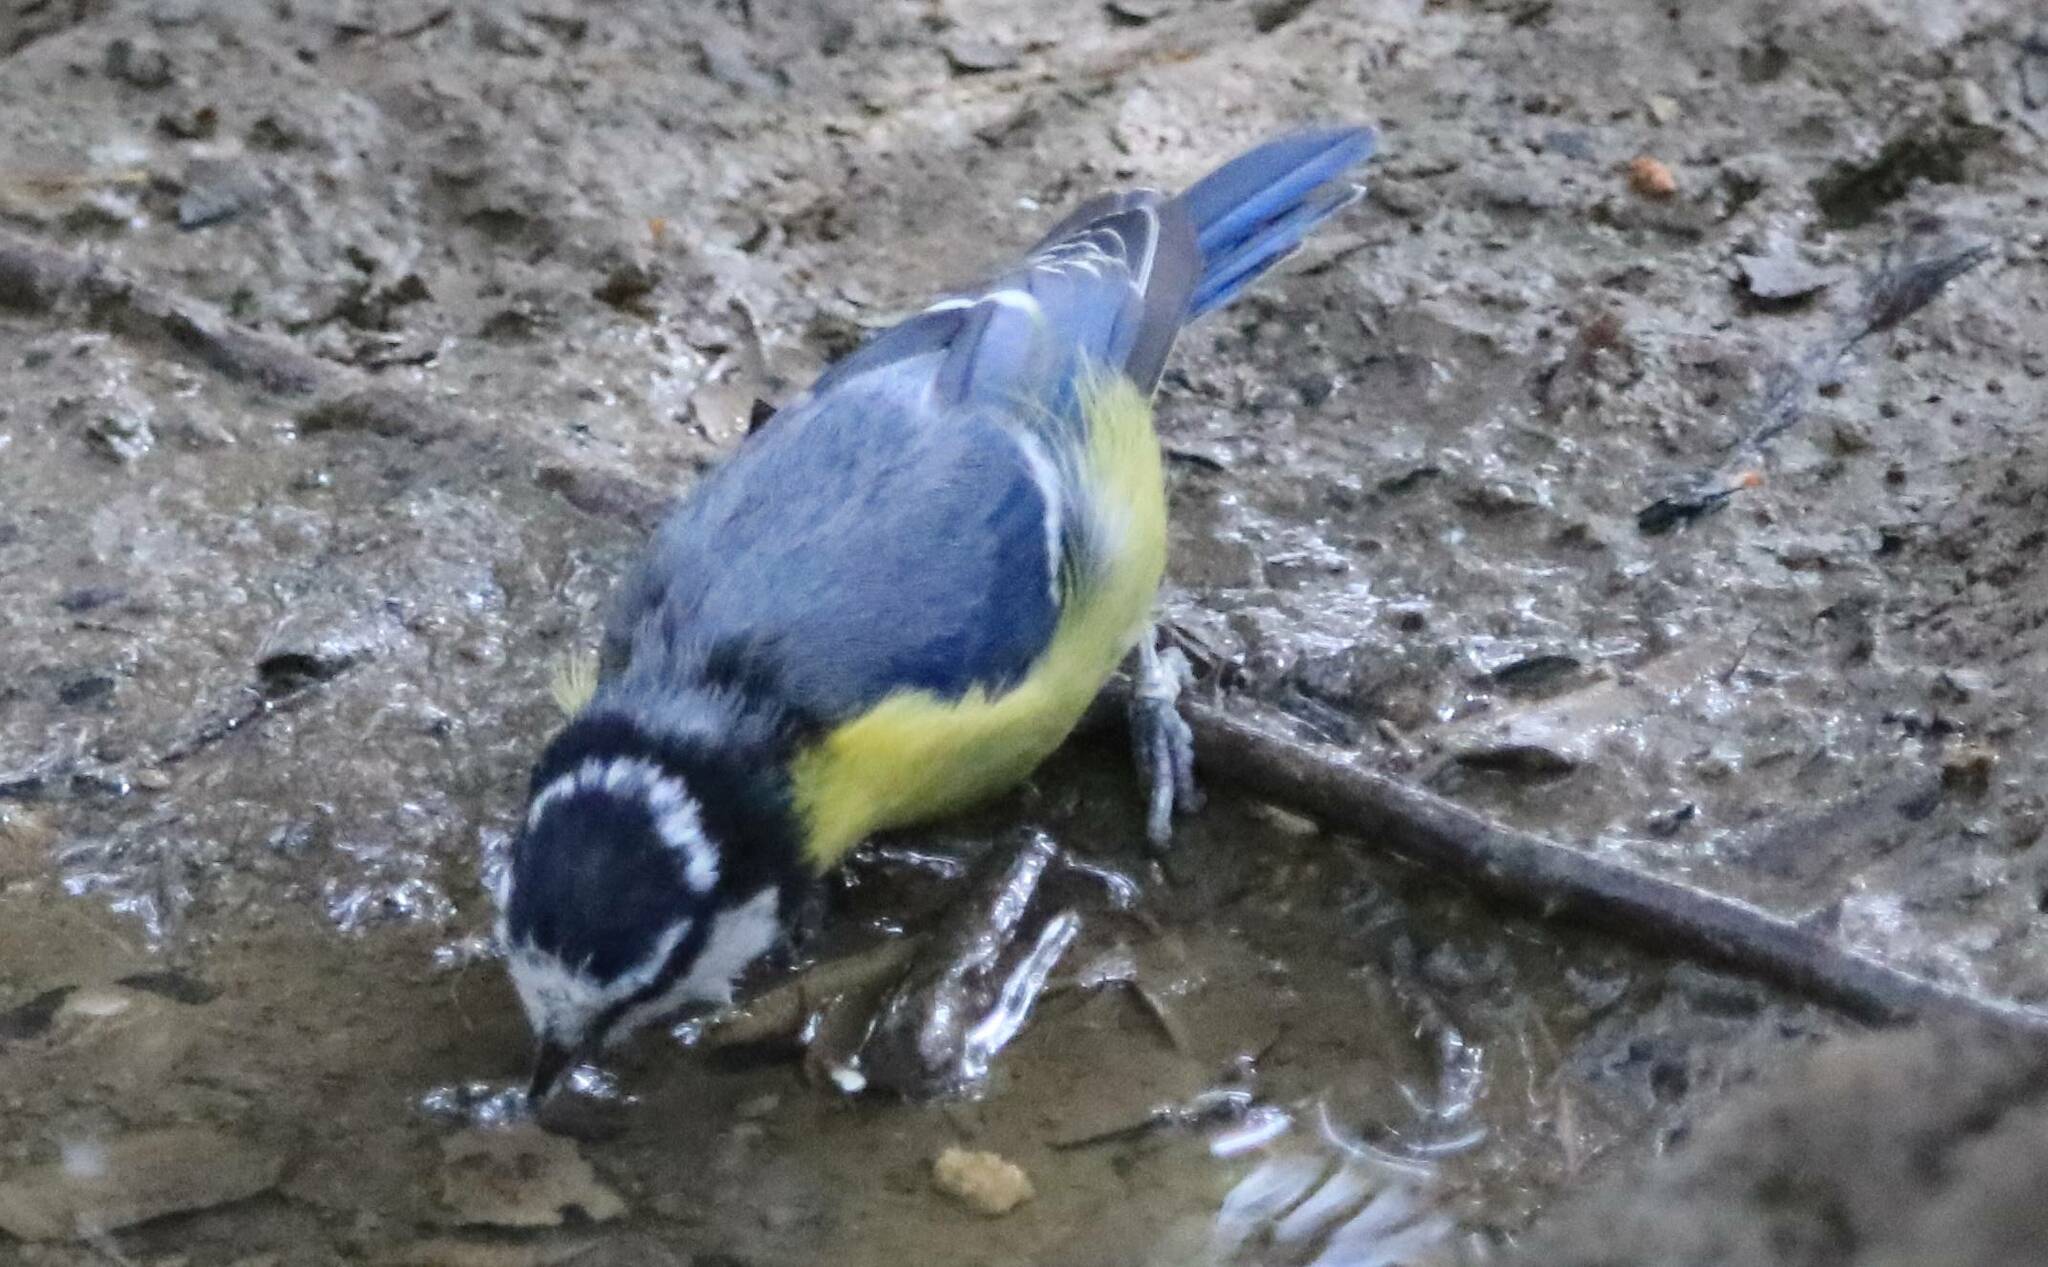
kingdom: Animalia
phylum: Chordata
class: Aves
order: Passeriformes
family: Paridae
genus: Cyanistes
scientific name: Cyanistes teneriffae
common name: African blue tit
